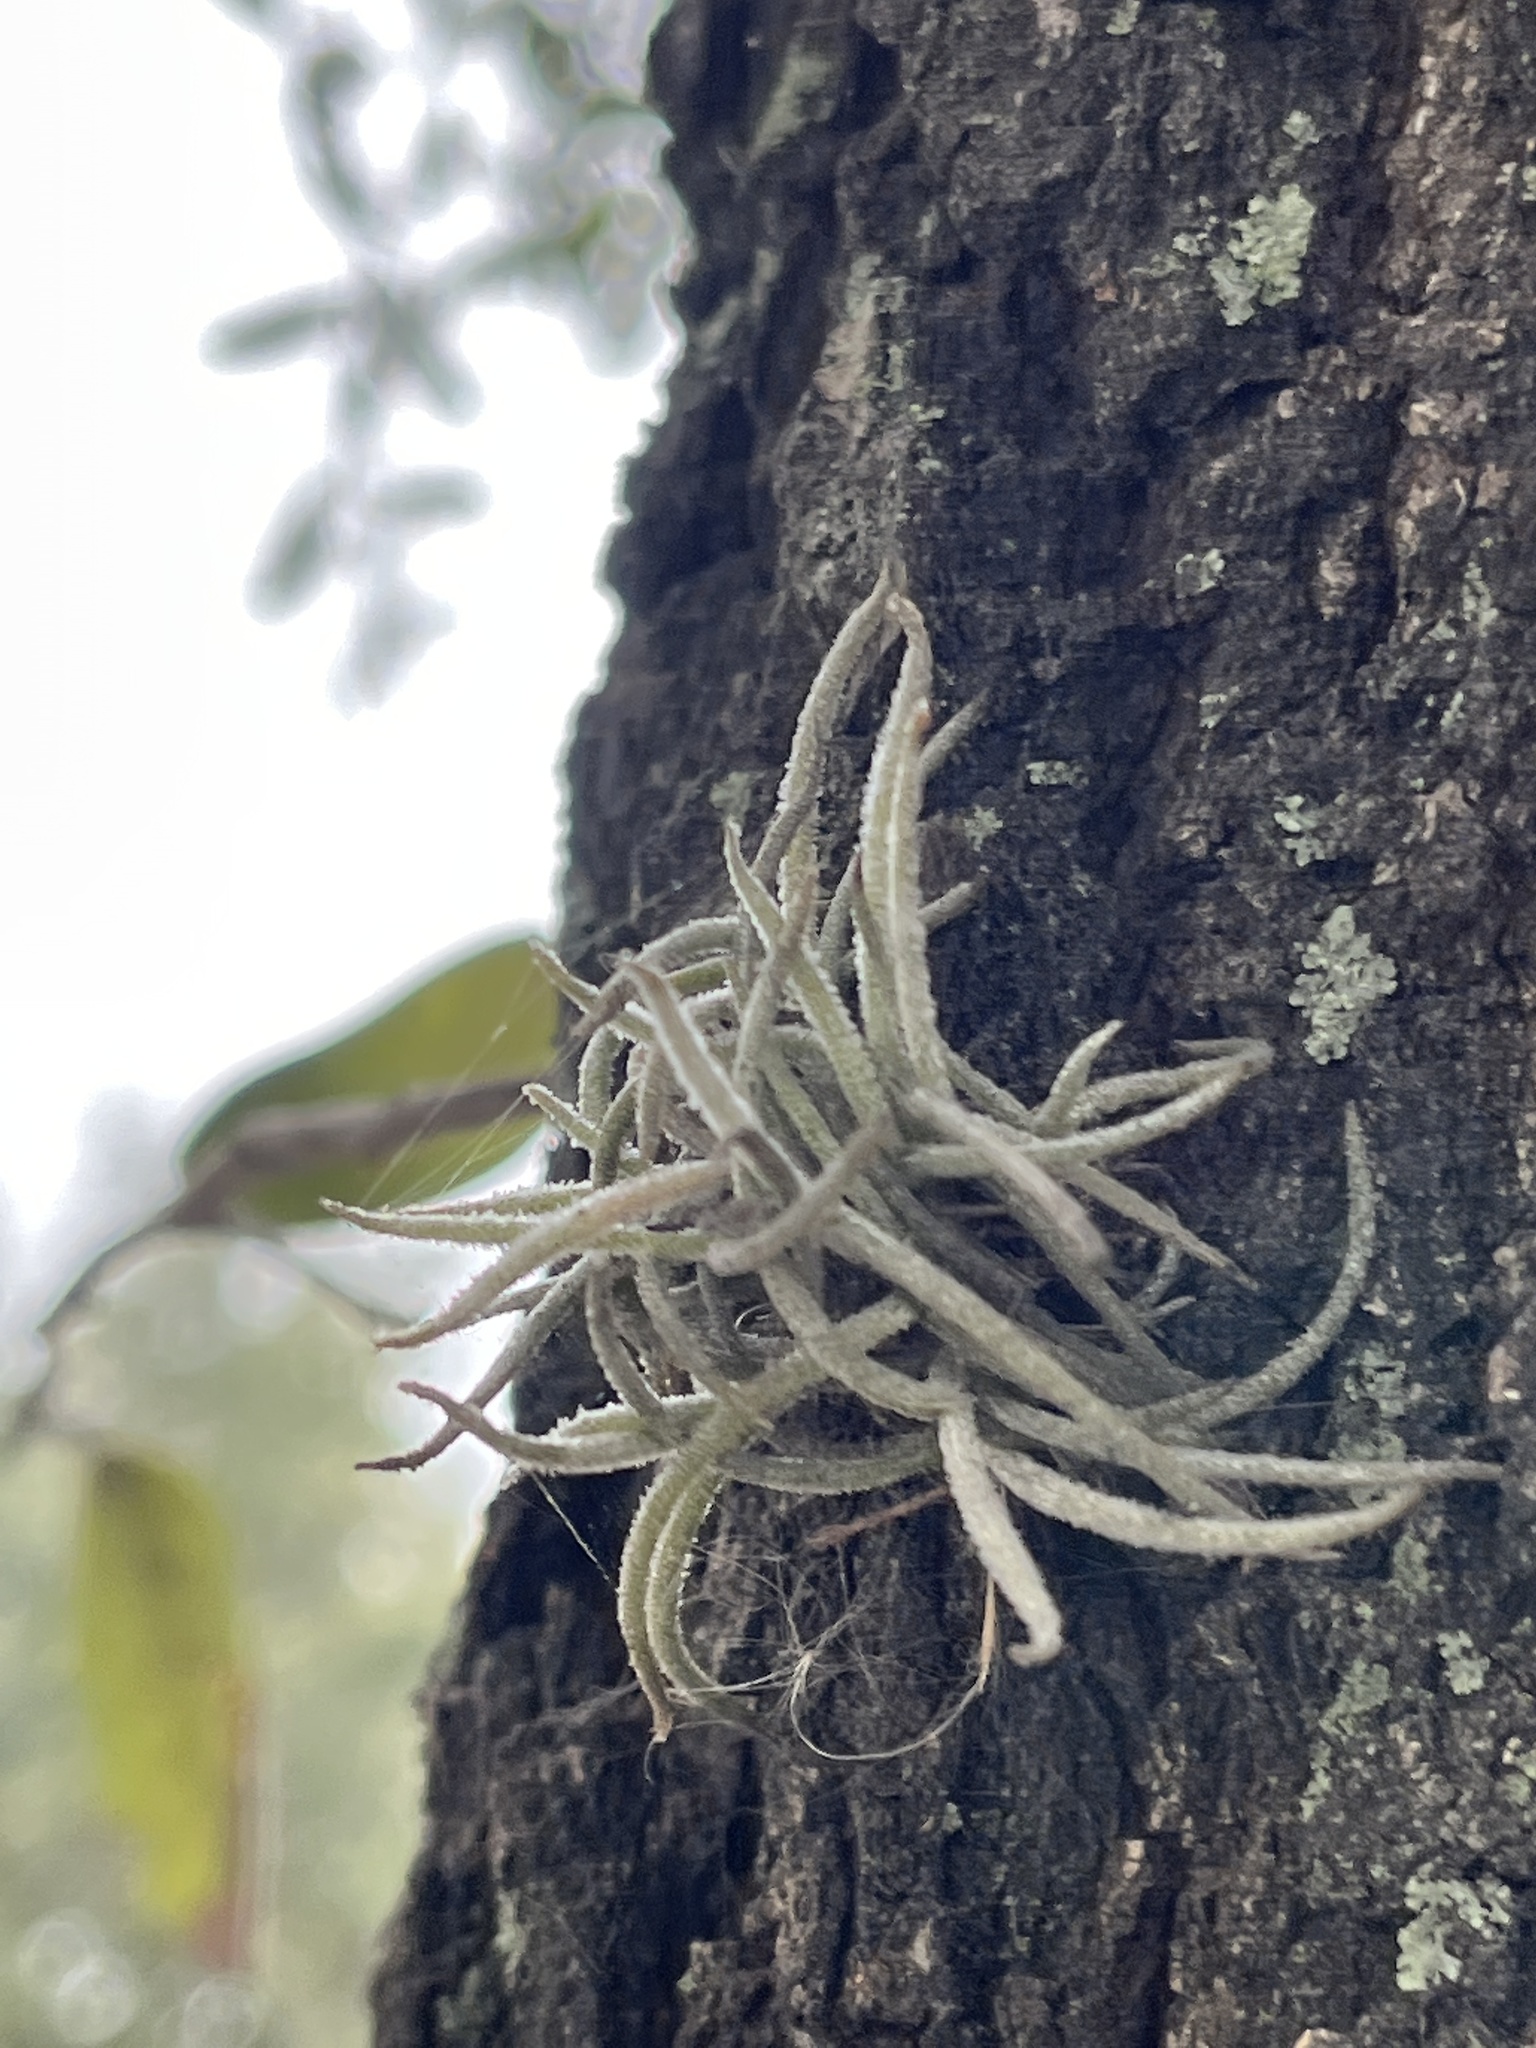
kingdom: Plantae
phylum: Tracheophyta
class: Liliopsida
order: Poales
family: Bromeliaceae
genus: Tillandsia
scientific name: Tillandsia recurvata
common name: Small ballmoss
